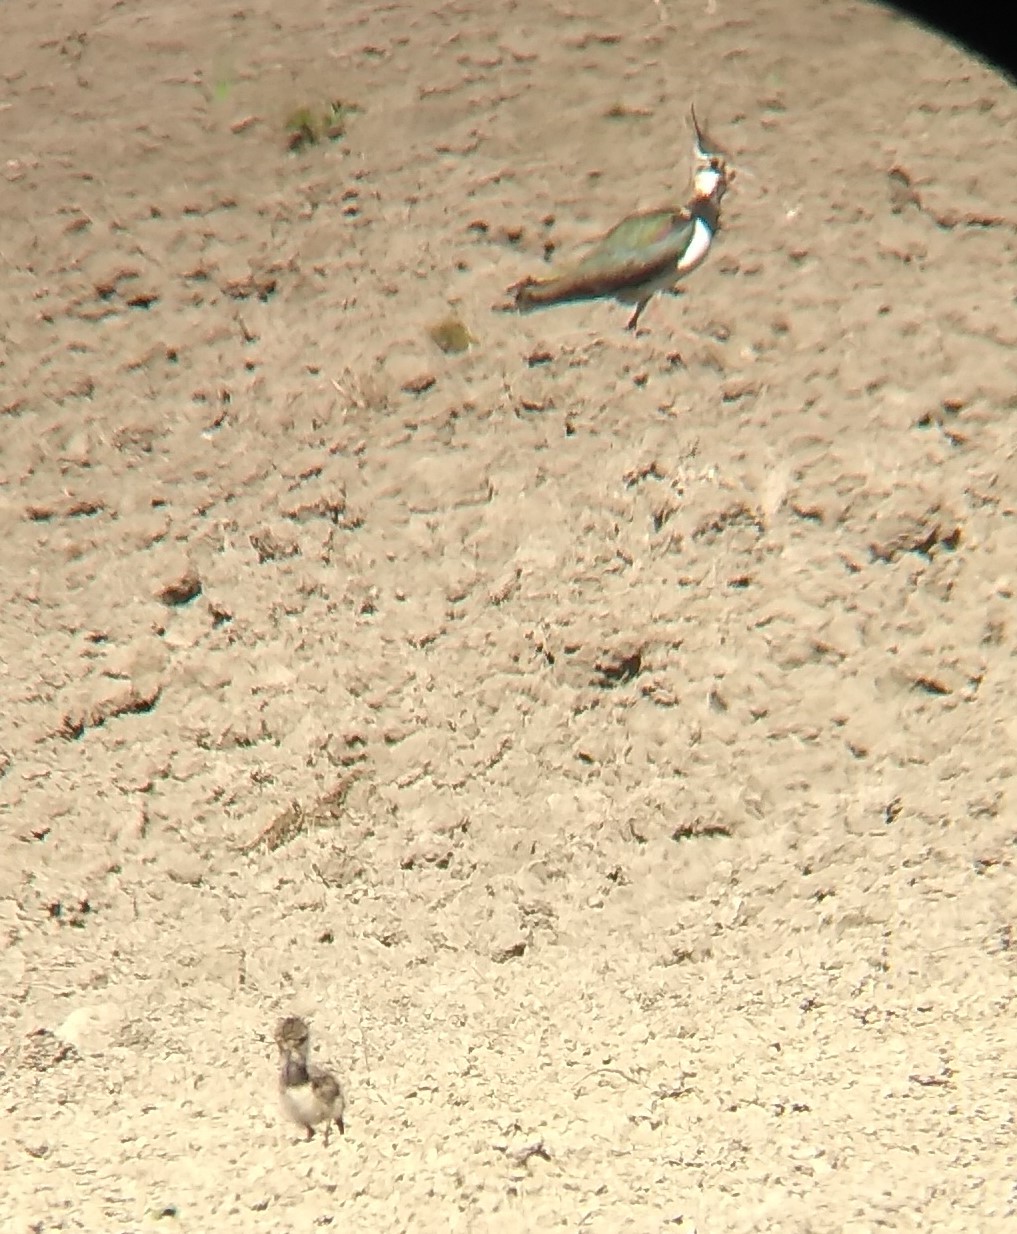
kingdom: Animalia
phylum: Chordata
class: Aves
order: Charadriiformes
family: Charadriidae
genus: Vanellus
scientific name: Vanellus vanellus
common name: Northern lapwing
